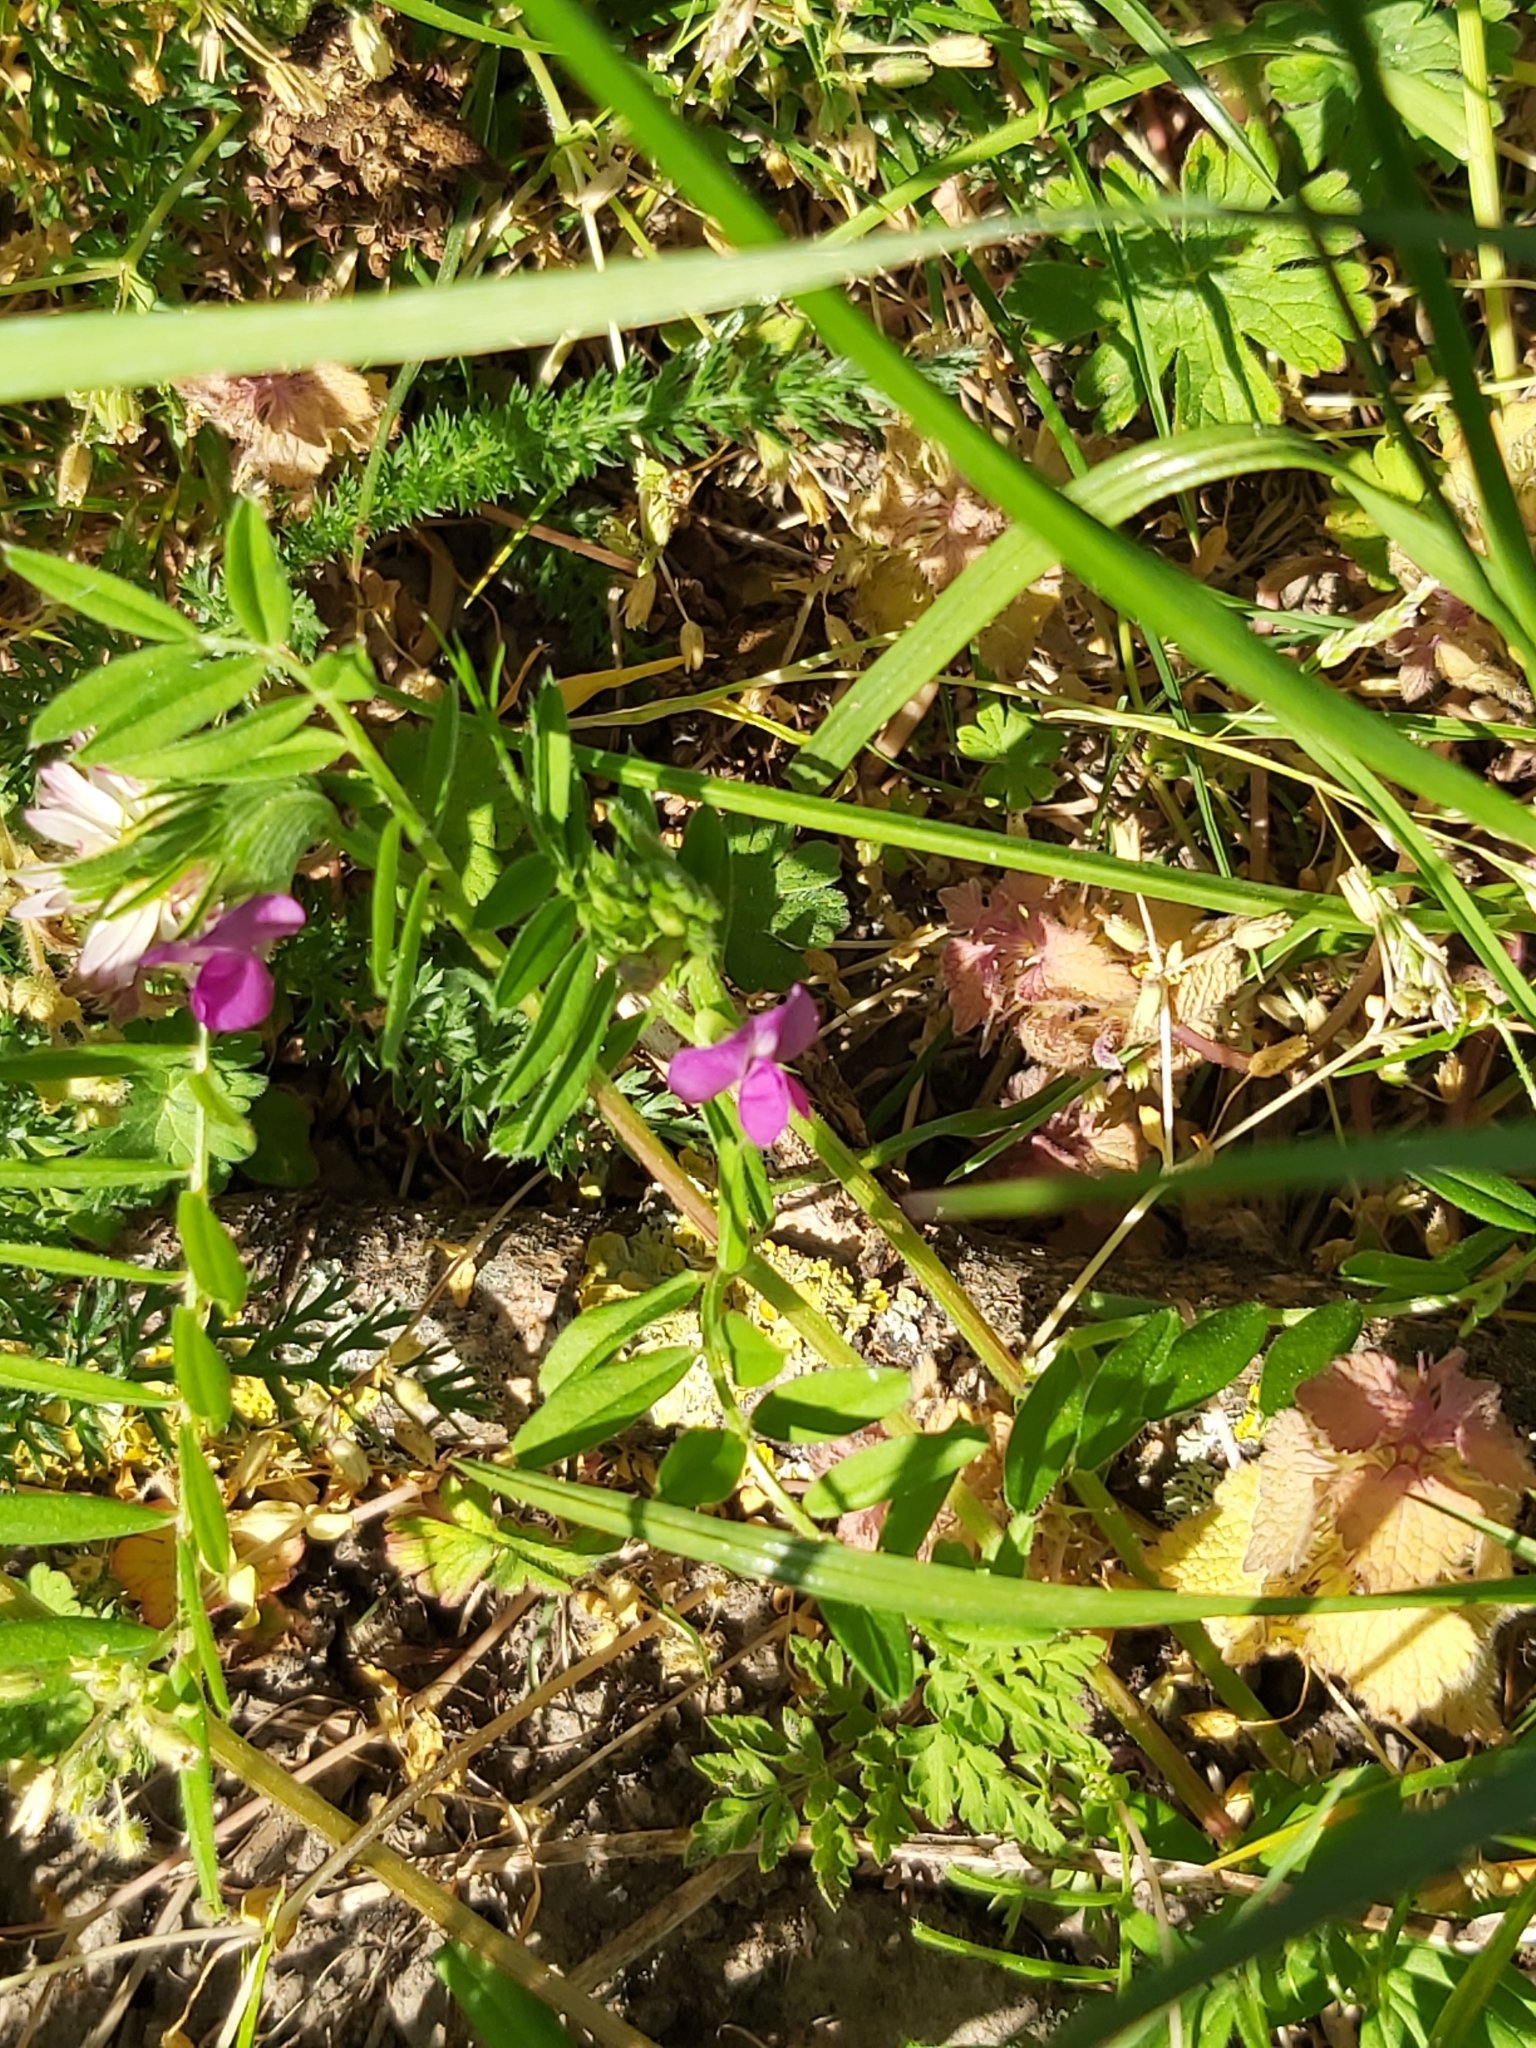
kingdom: Plantae
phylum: Tracheophyta
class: Magnoliopsida
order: Fabales
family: Fabaceae
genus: Vicia
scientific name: Vicia sativa
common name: Garden vetch
